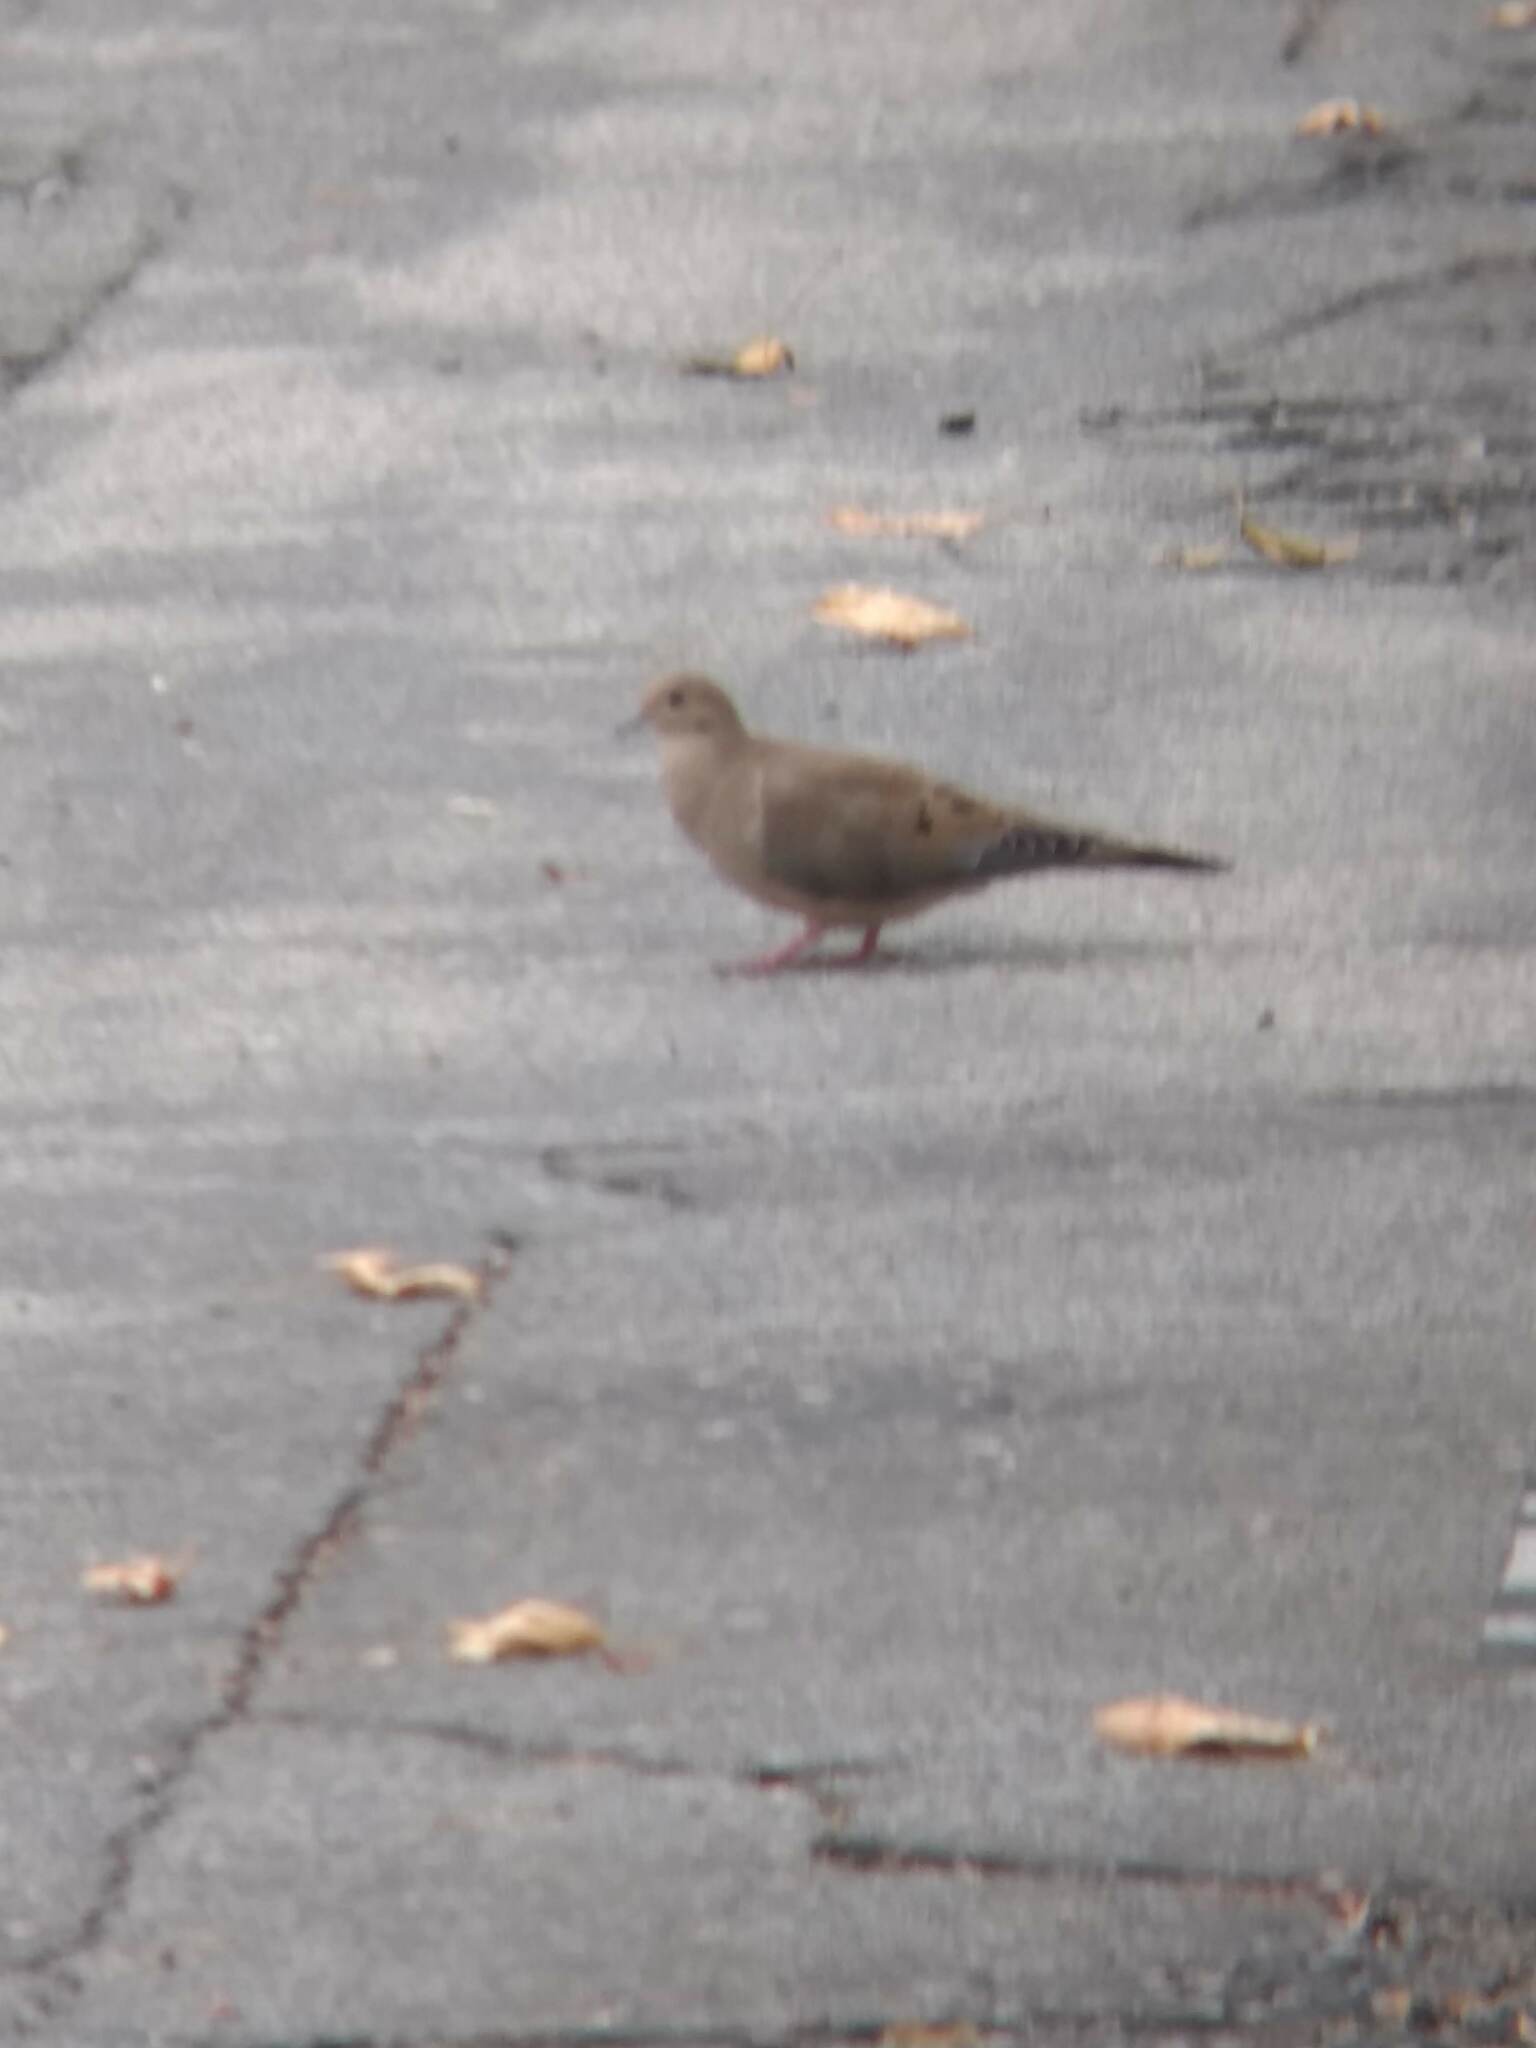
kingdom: Animalia
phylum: Chordata
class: Aves
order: Columbiformes
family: Columbidae
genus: Zenaida
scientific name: Zenaida macroura
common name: Mourning dove
